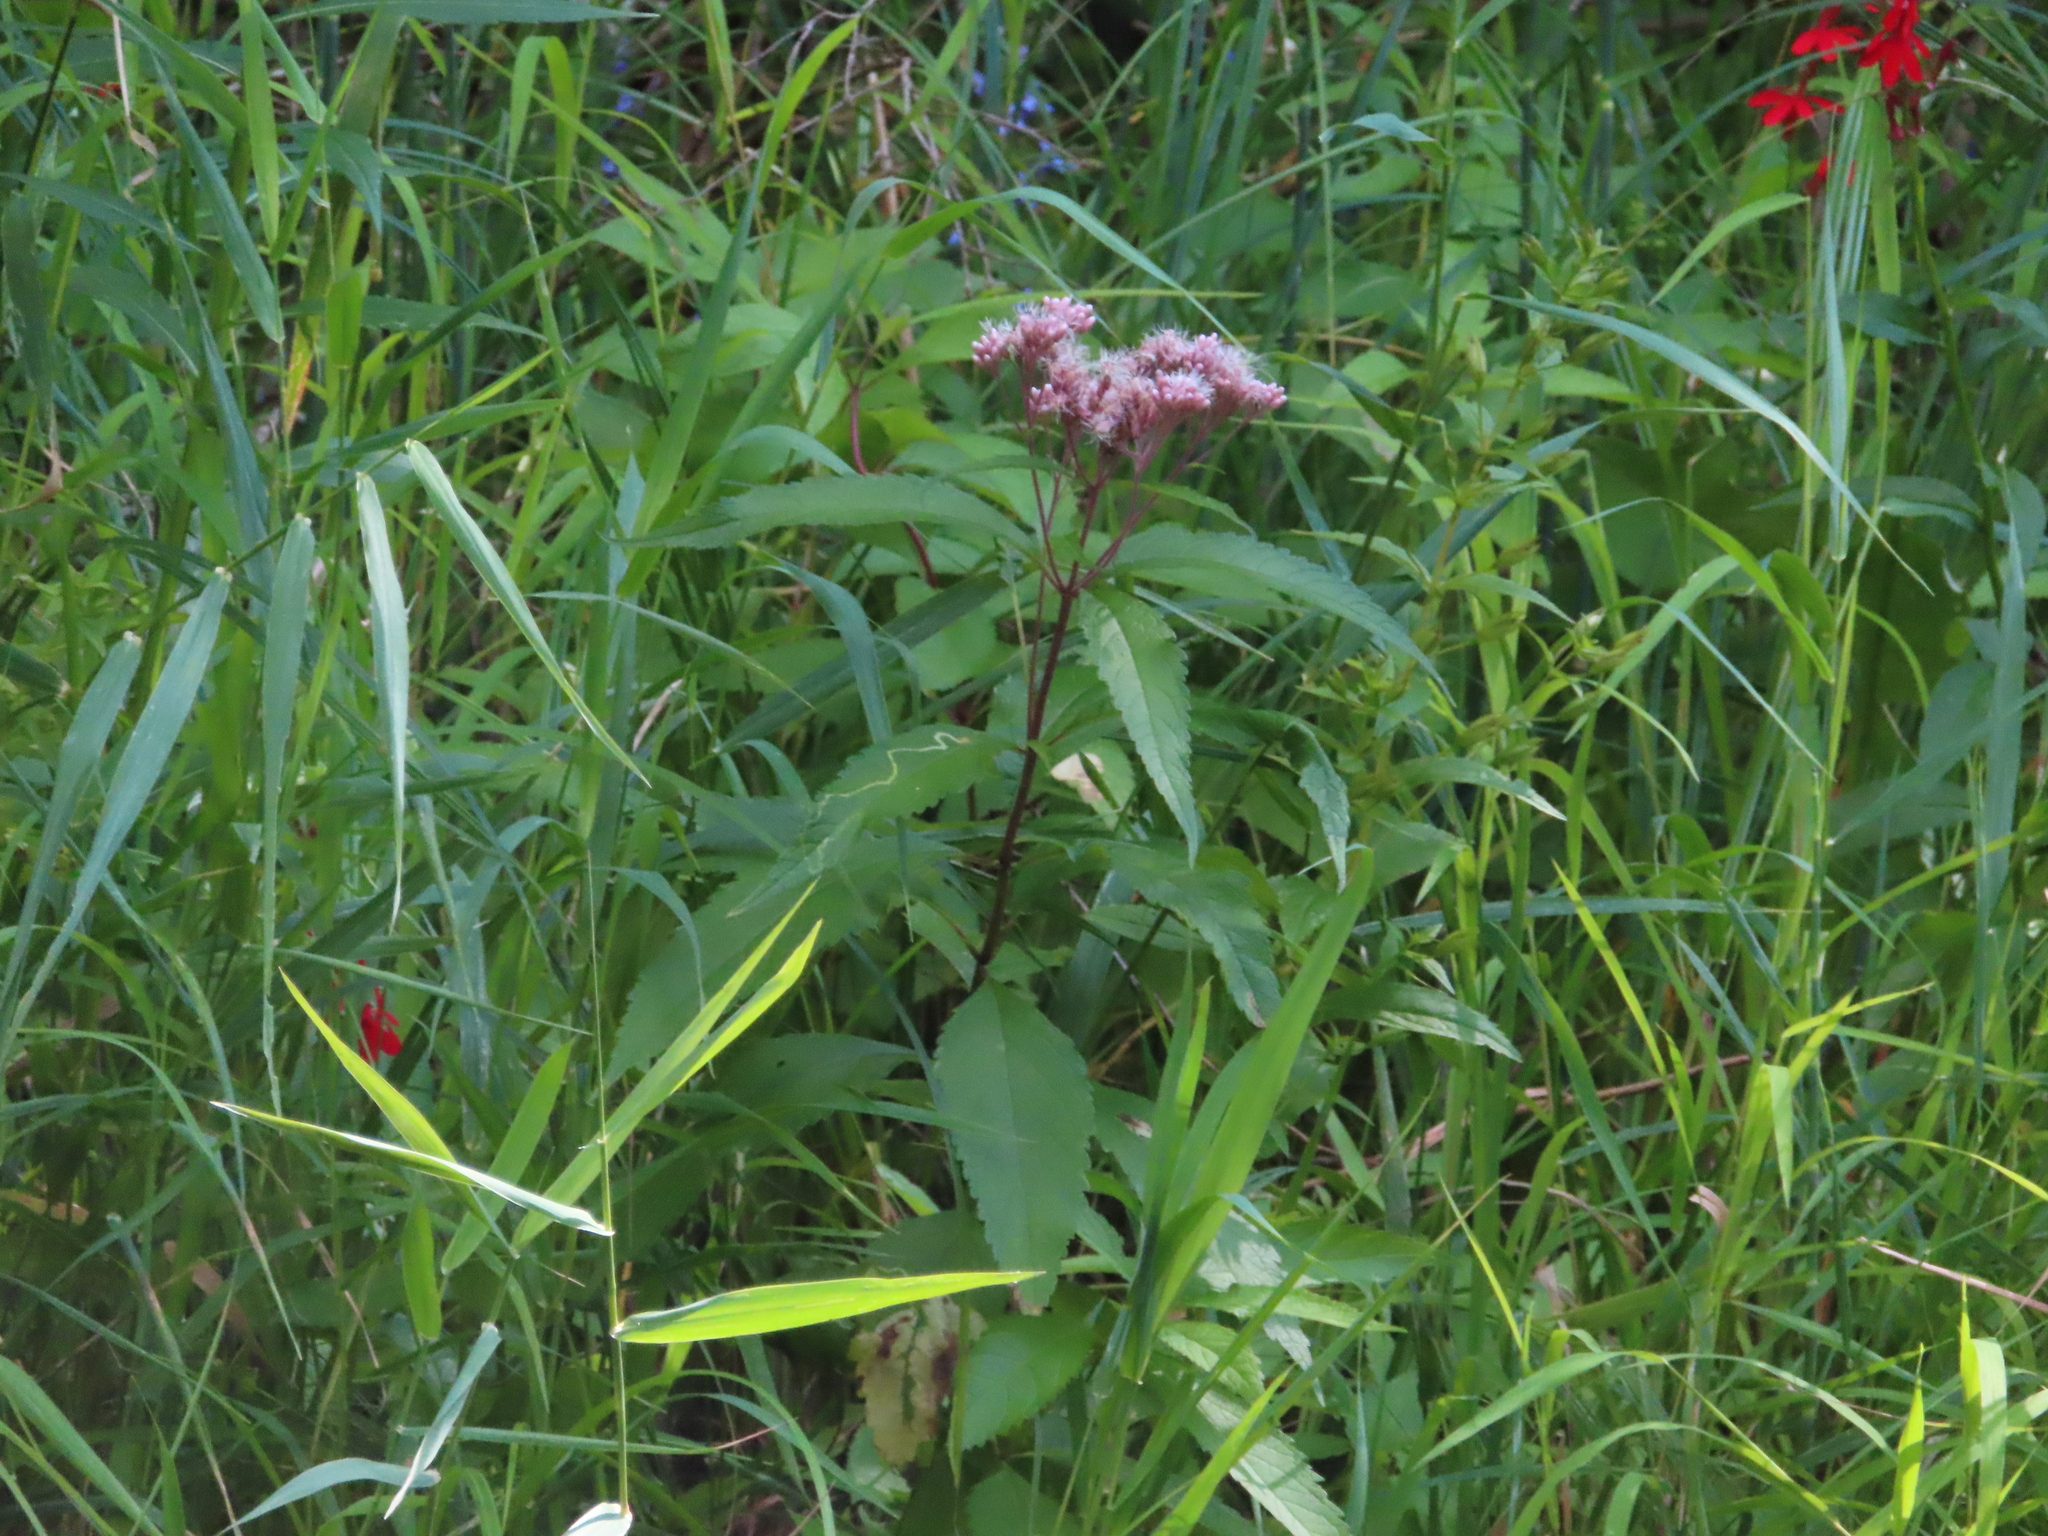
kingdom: Animalia
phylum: Arthropoda
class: Insecta
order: Diptera
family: Agromyzidae
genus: Calycomyza
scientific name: Calycomyza flavinotum
